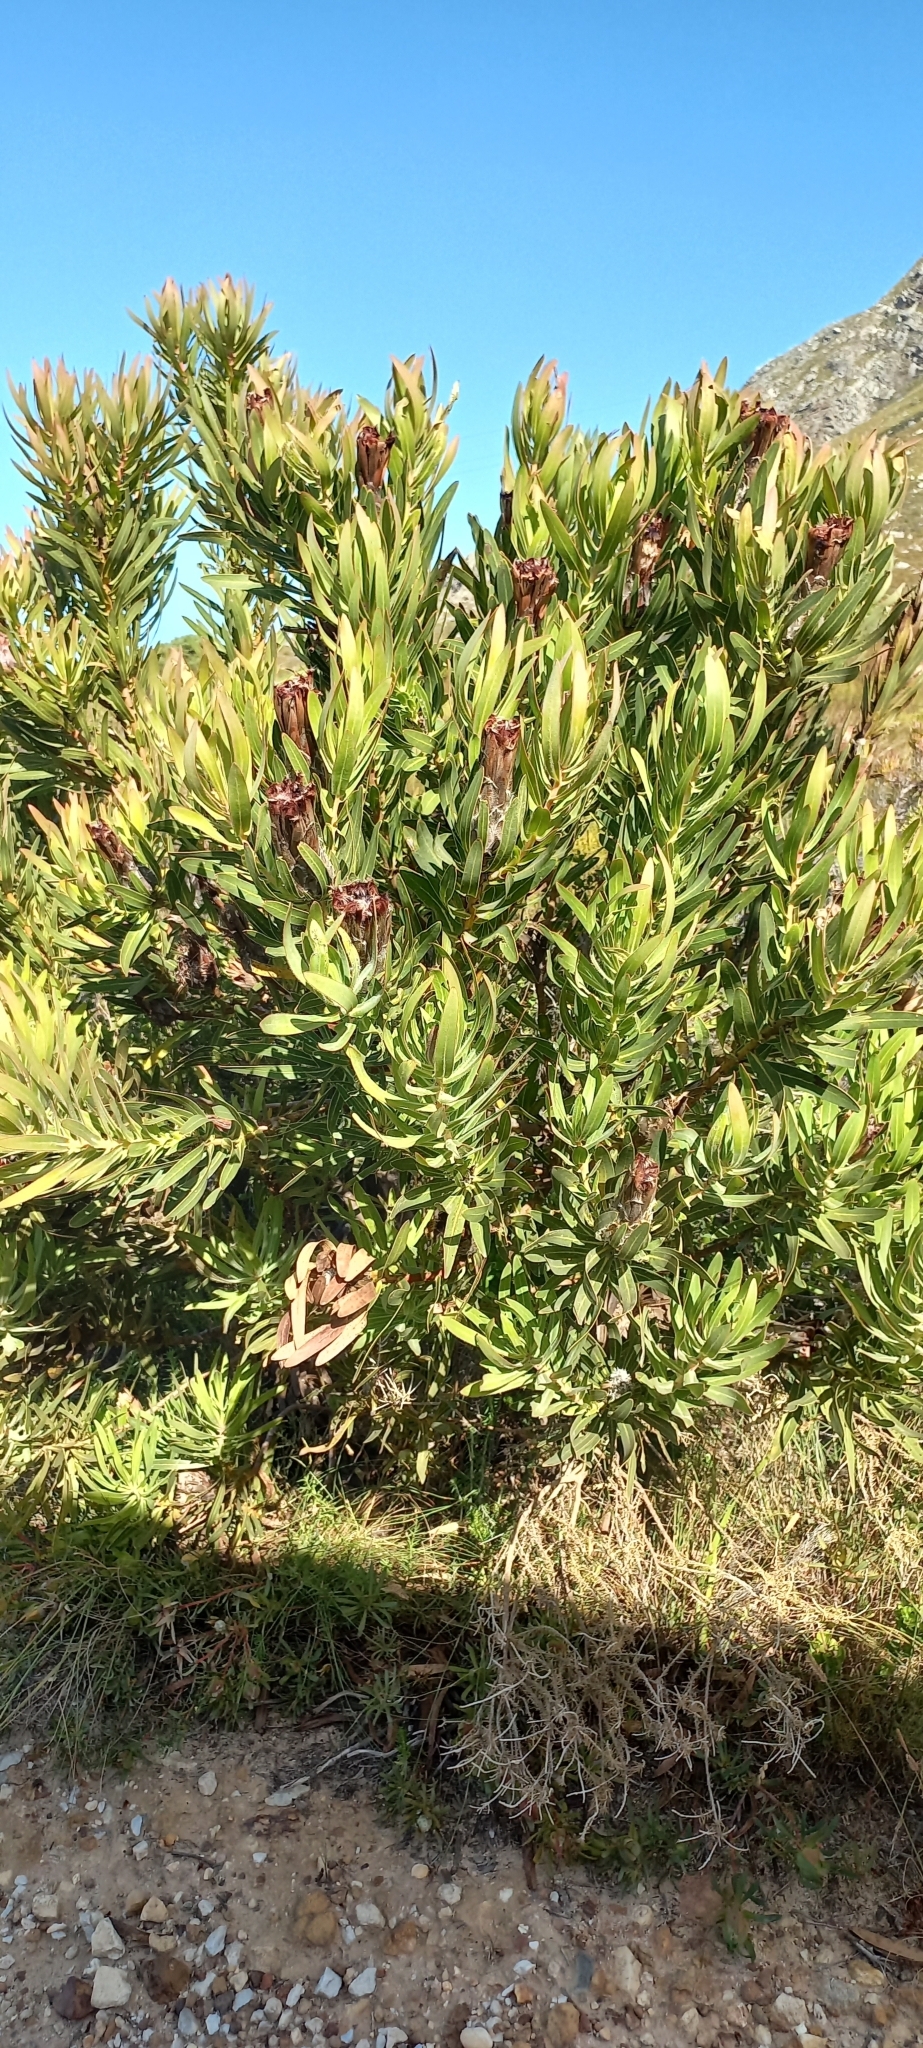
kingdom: Plantae
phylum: Tracheophyta
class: Magnoliopsida
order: Proteales
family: Proteaceae
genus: Protea
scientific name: Protea lepidocarpodendron
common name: Black-bearded protea
